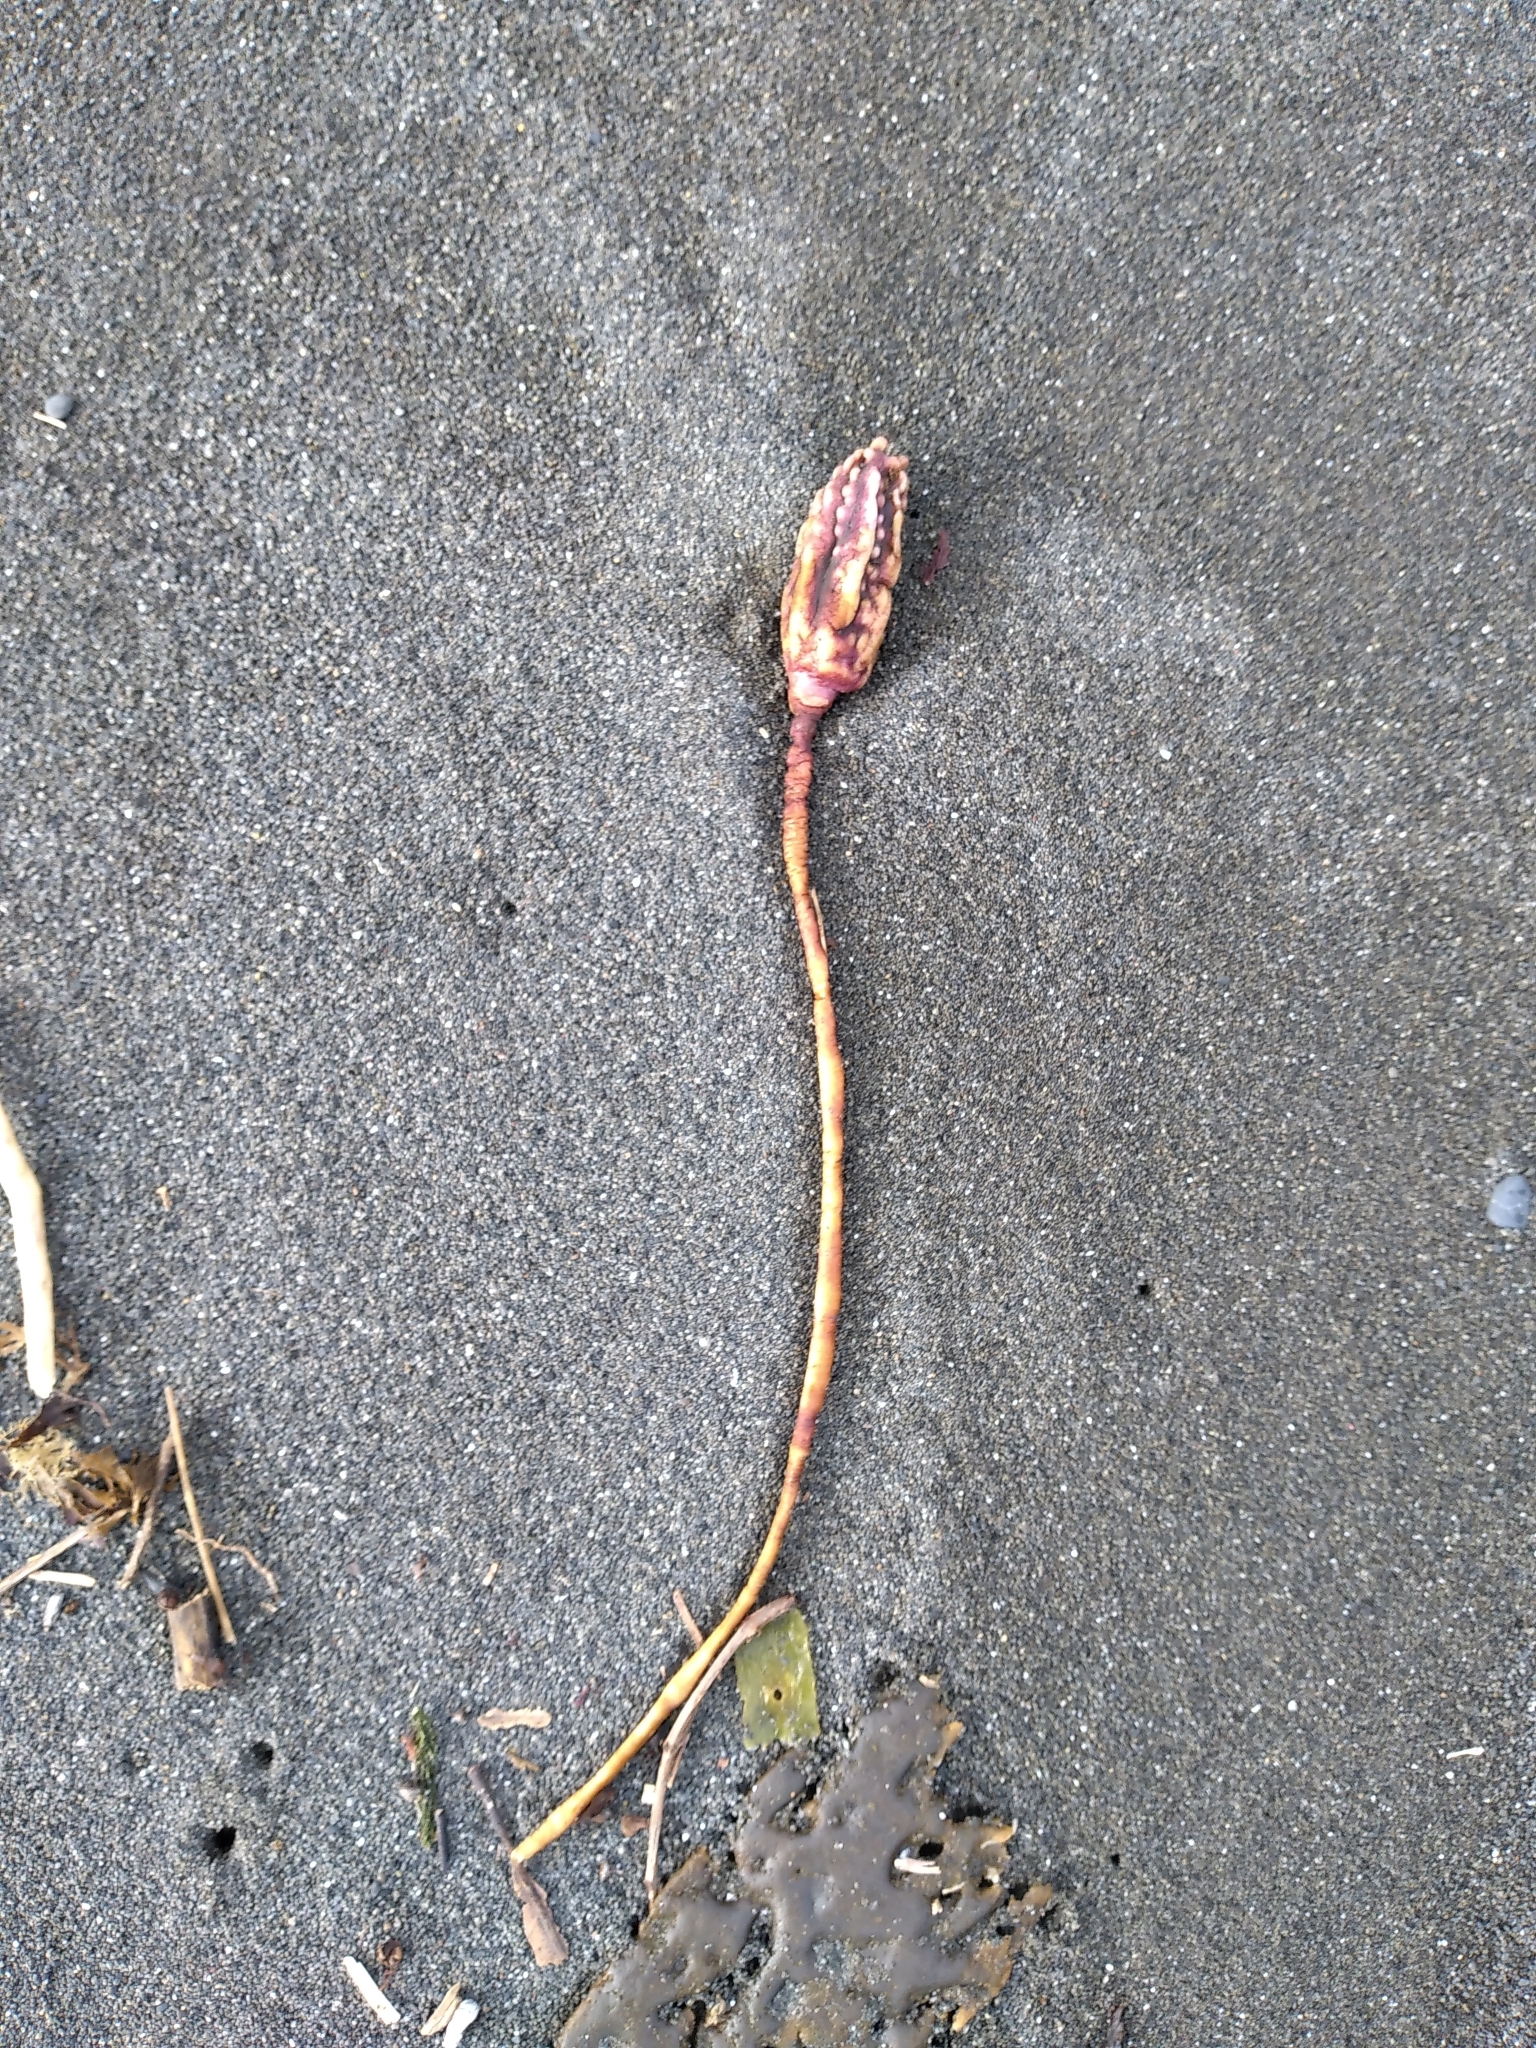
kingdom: Animalia
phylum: Chordata
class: Ascidiacea
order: Stolidobranchia
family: Pyuridae
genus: Pyura
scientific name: Pyura pachydermatina
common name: Sea tulip
